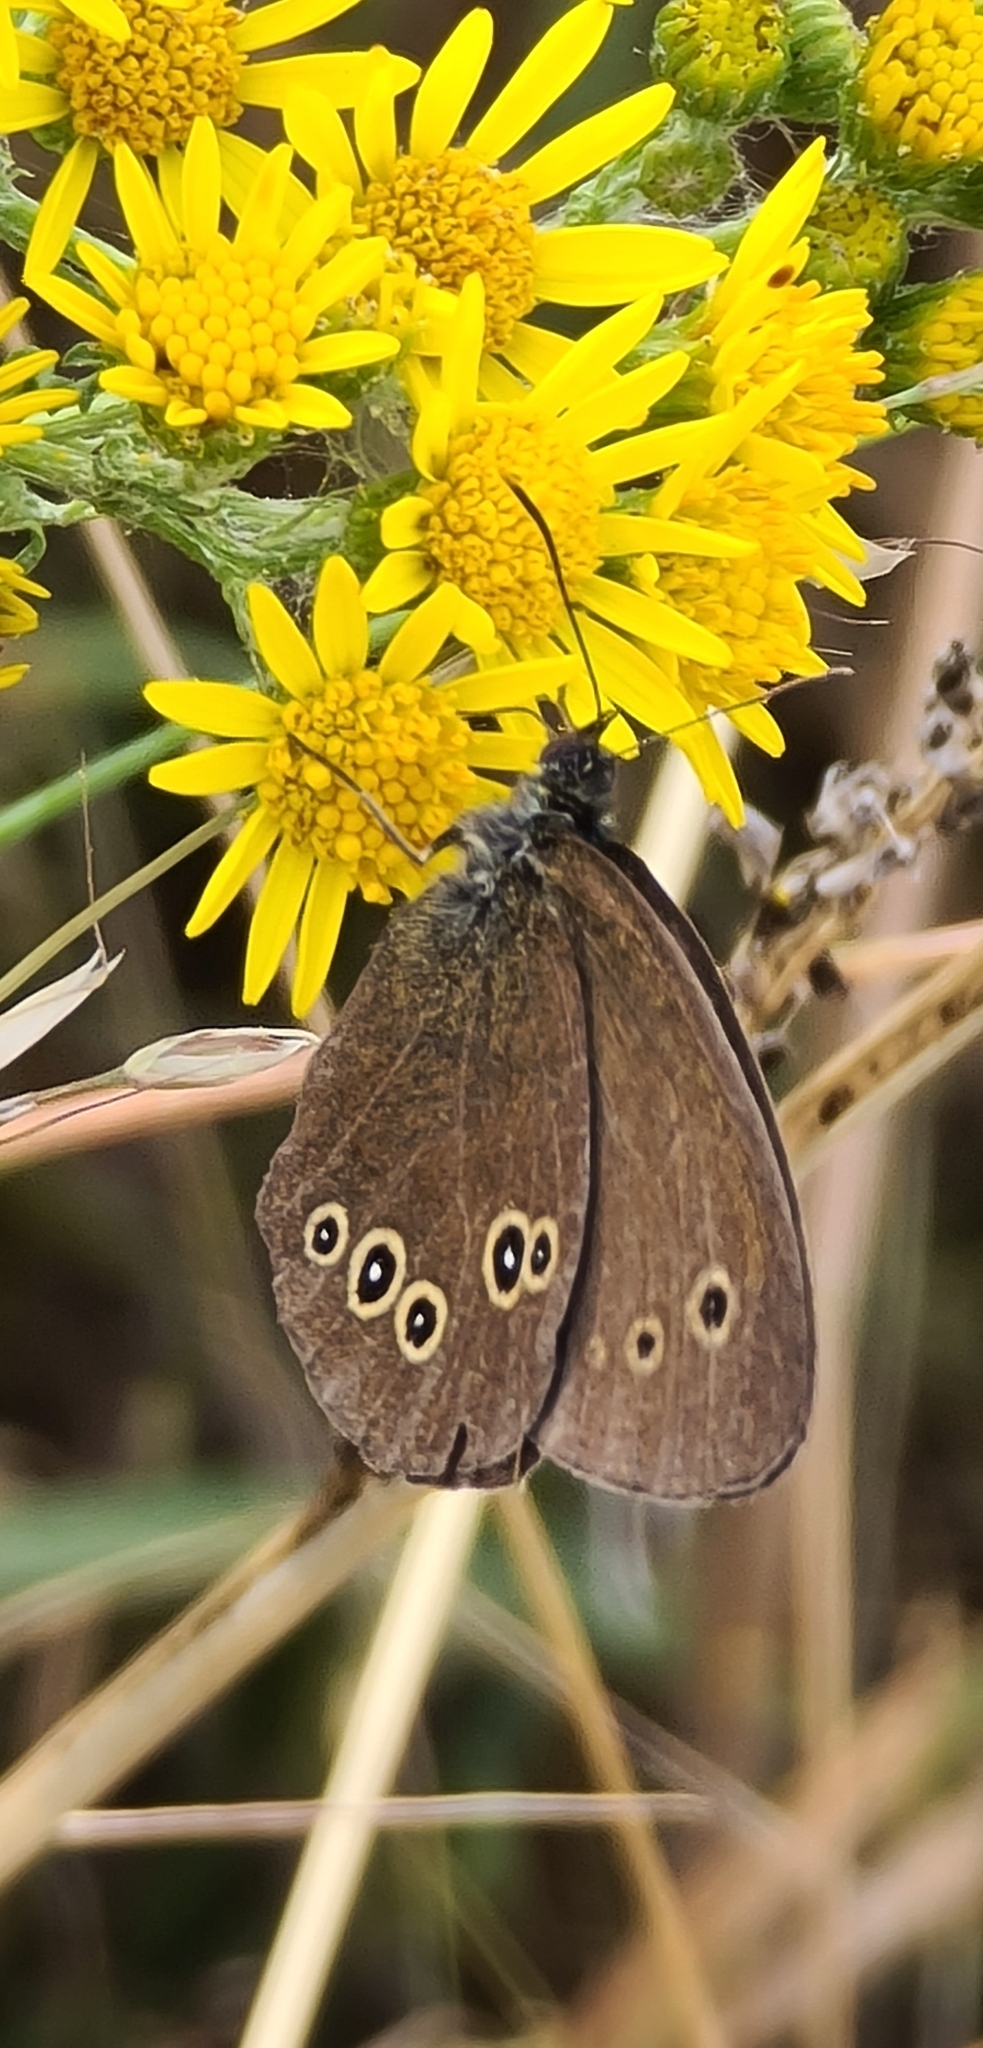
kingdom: Animalia
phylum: Arthropoda
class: Insecta
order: Lepidoptera
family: Nymphalidae
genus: Aphantopus
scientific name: Aphantopus hyperantus
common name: Ringlet
